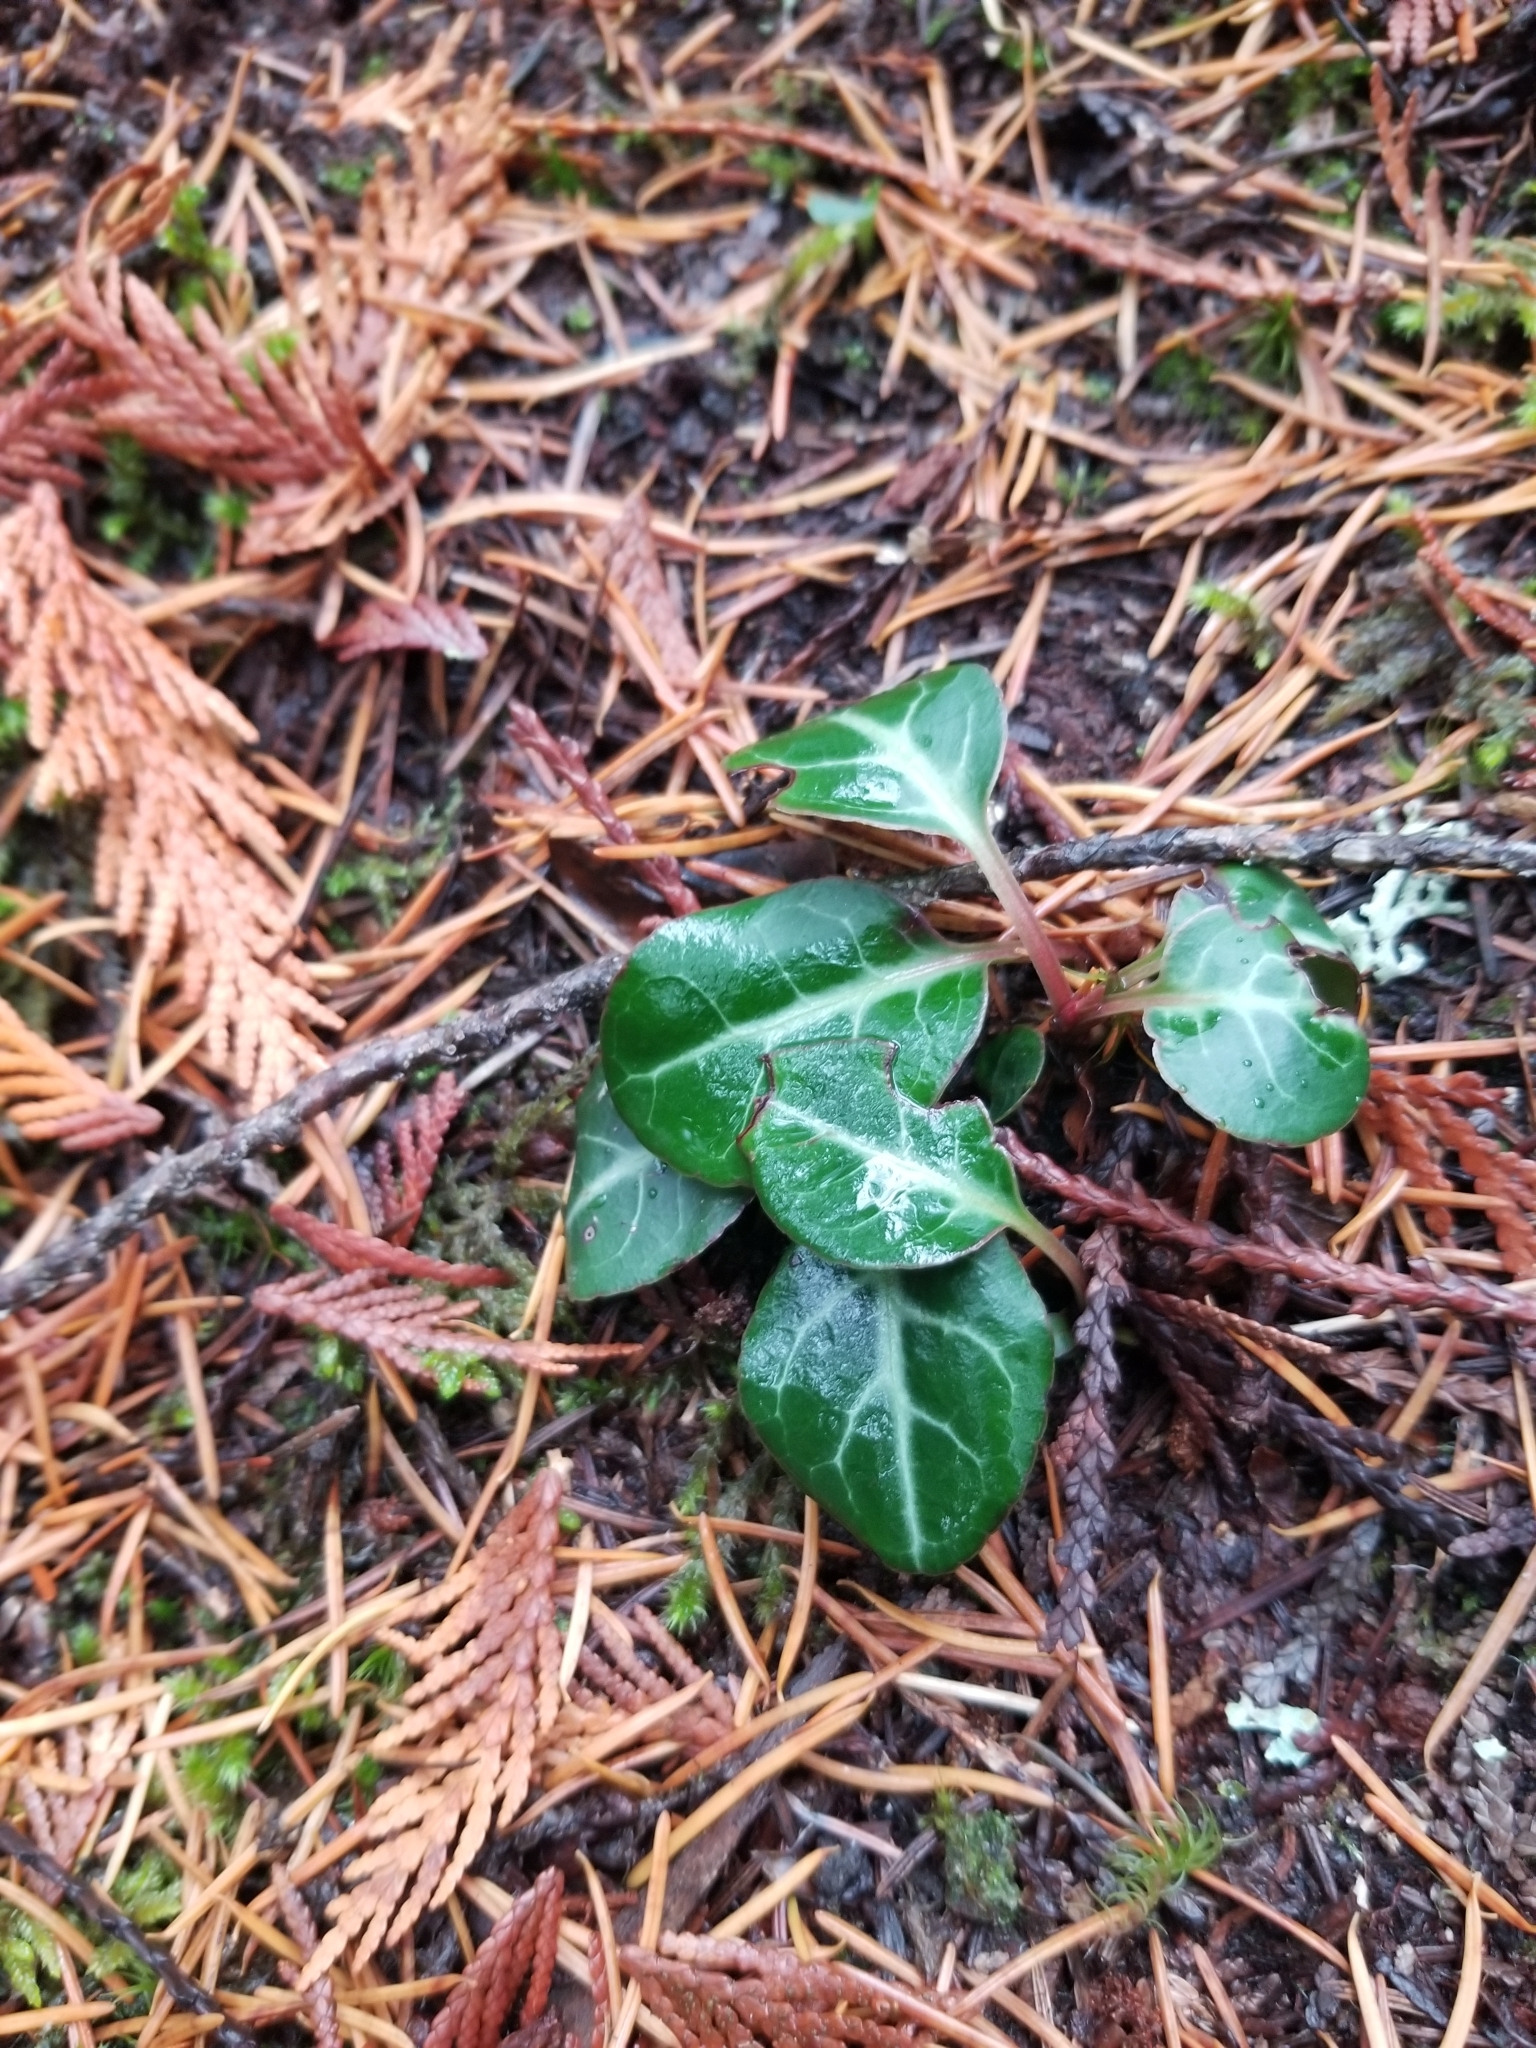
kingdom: Plantae
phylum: Tracheophyta
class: Magnoliopsida
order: Ericales
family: Ericaceae
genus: Pyrola
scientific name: Pyrola picta
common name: White-vein wintergreen
